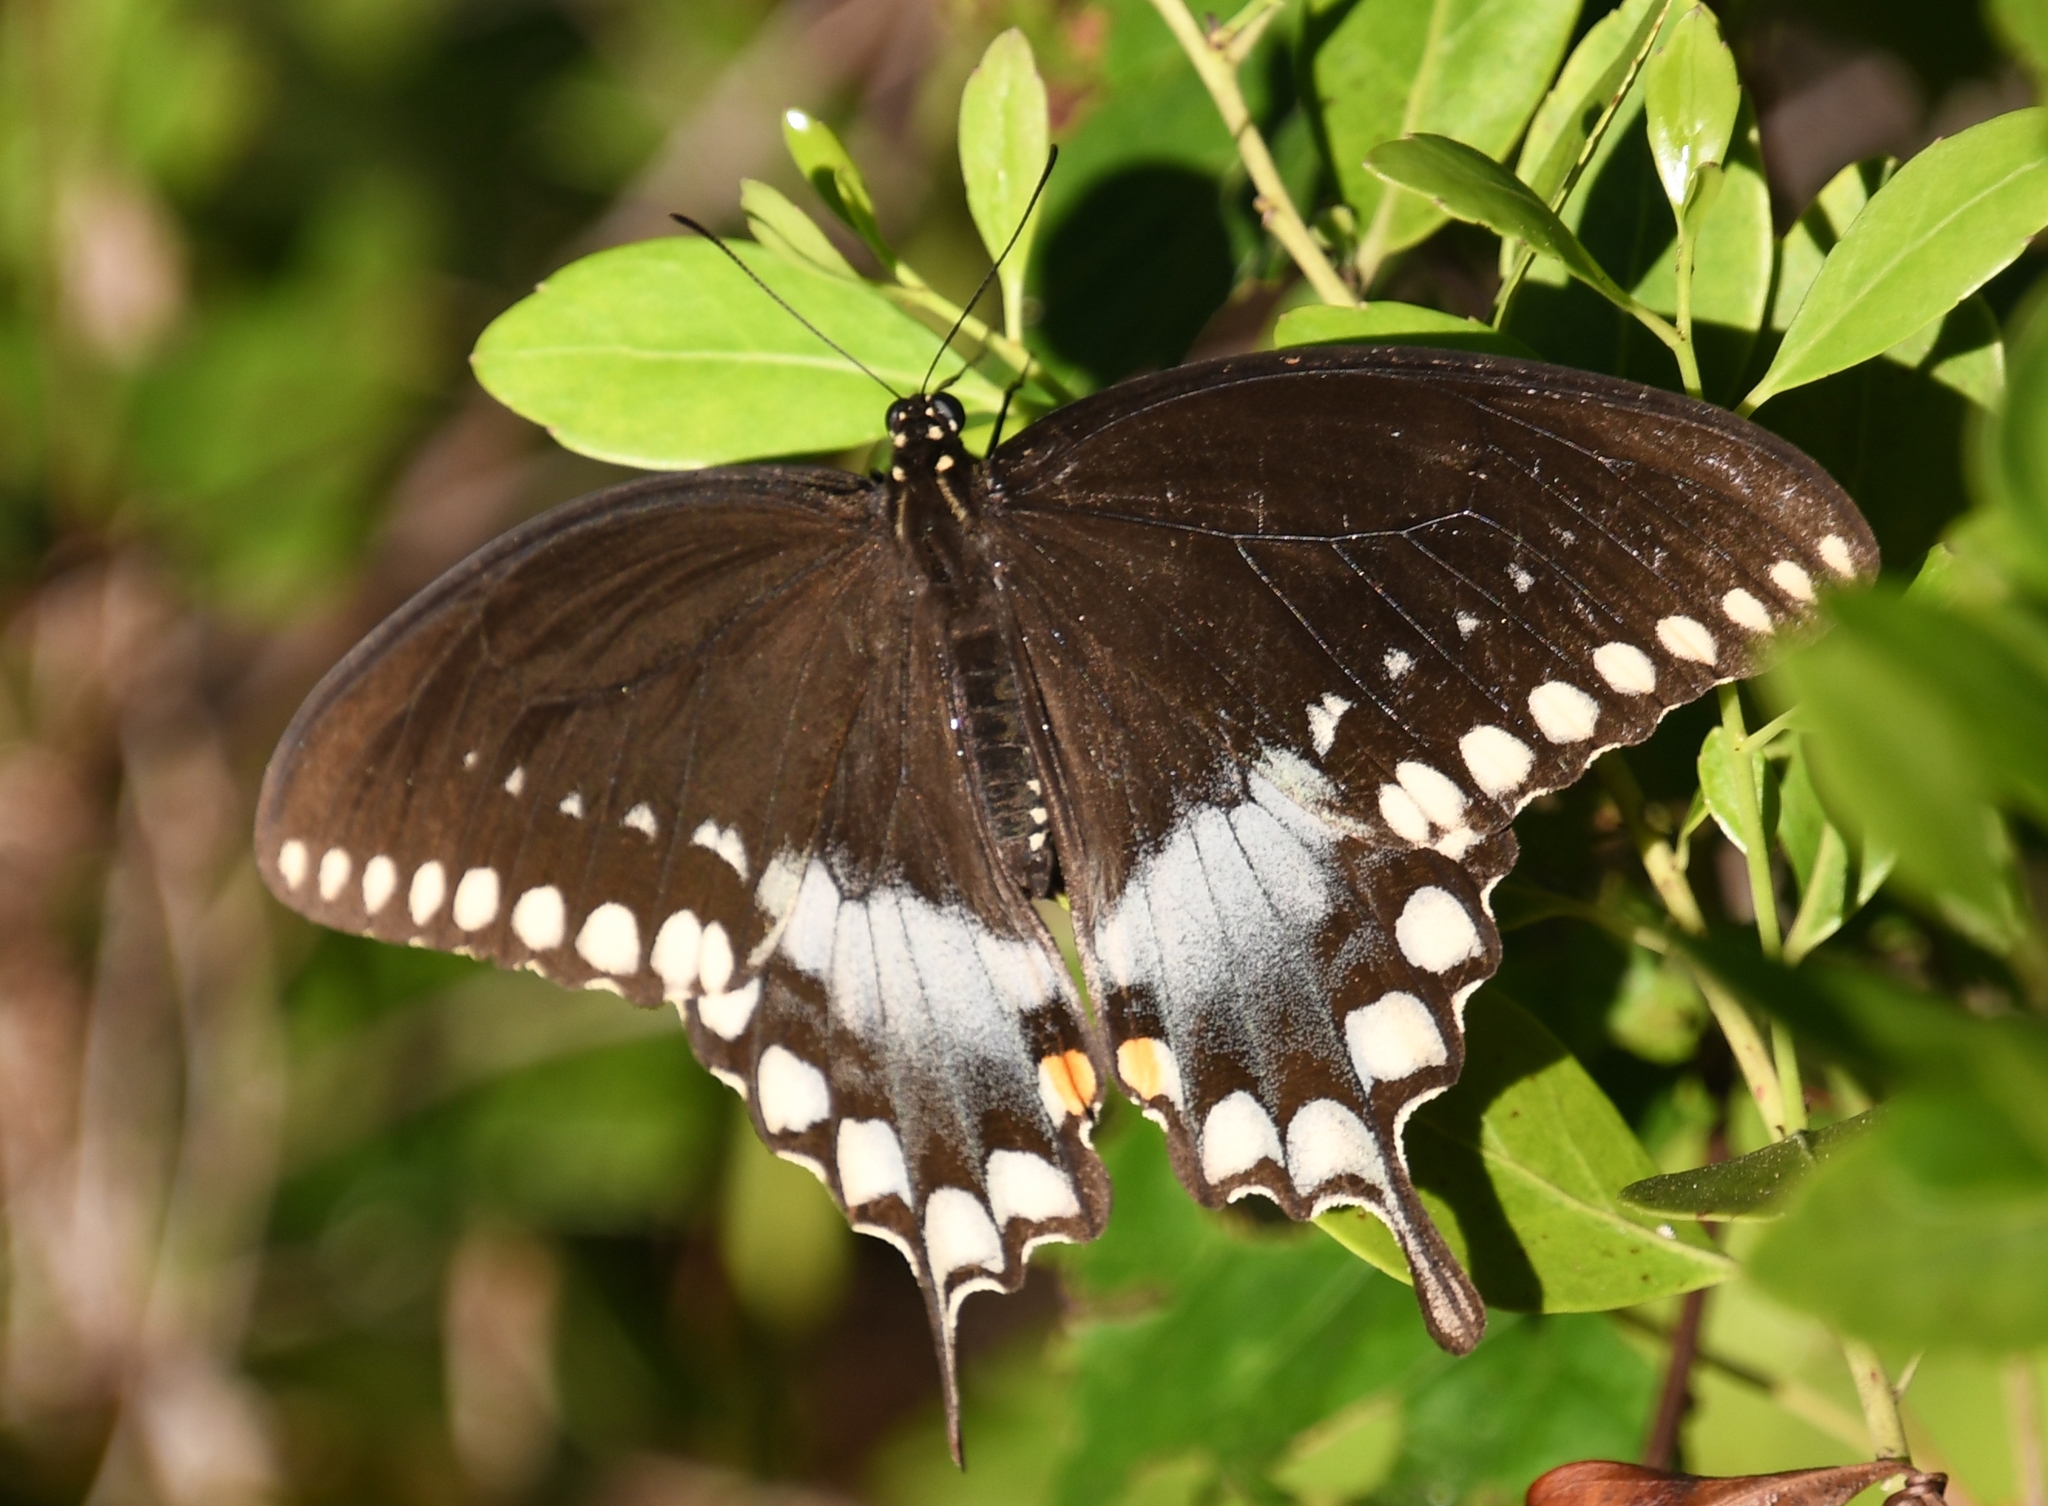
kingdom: Animalia
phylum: Arthropoda
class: Insecta
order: Lepidoptera
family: Papilionidae
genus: Papilio
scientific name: Papilio troilus
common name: Spicebush swallowtail
